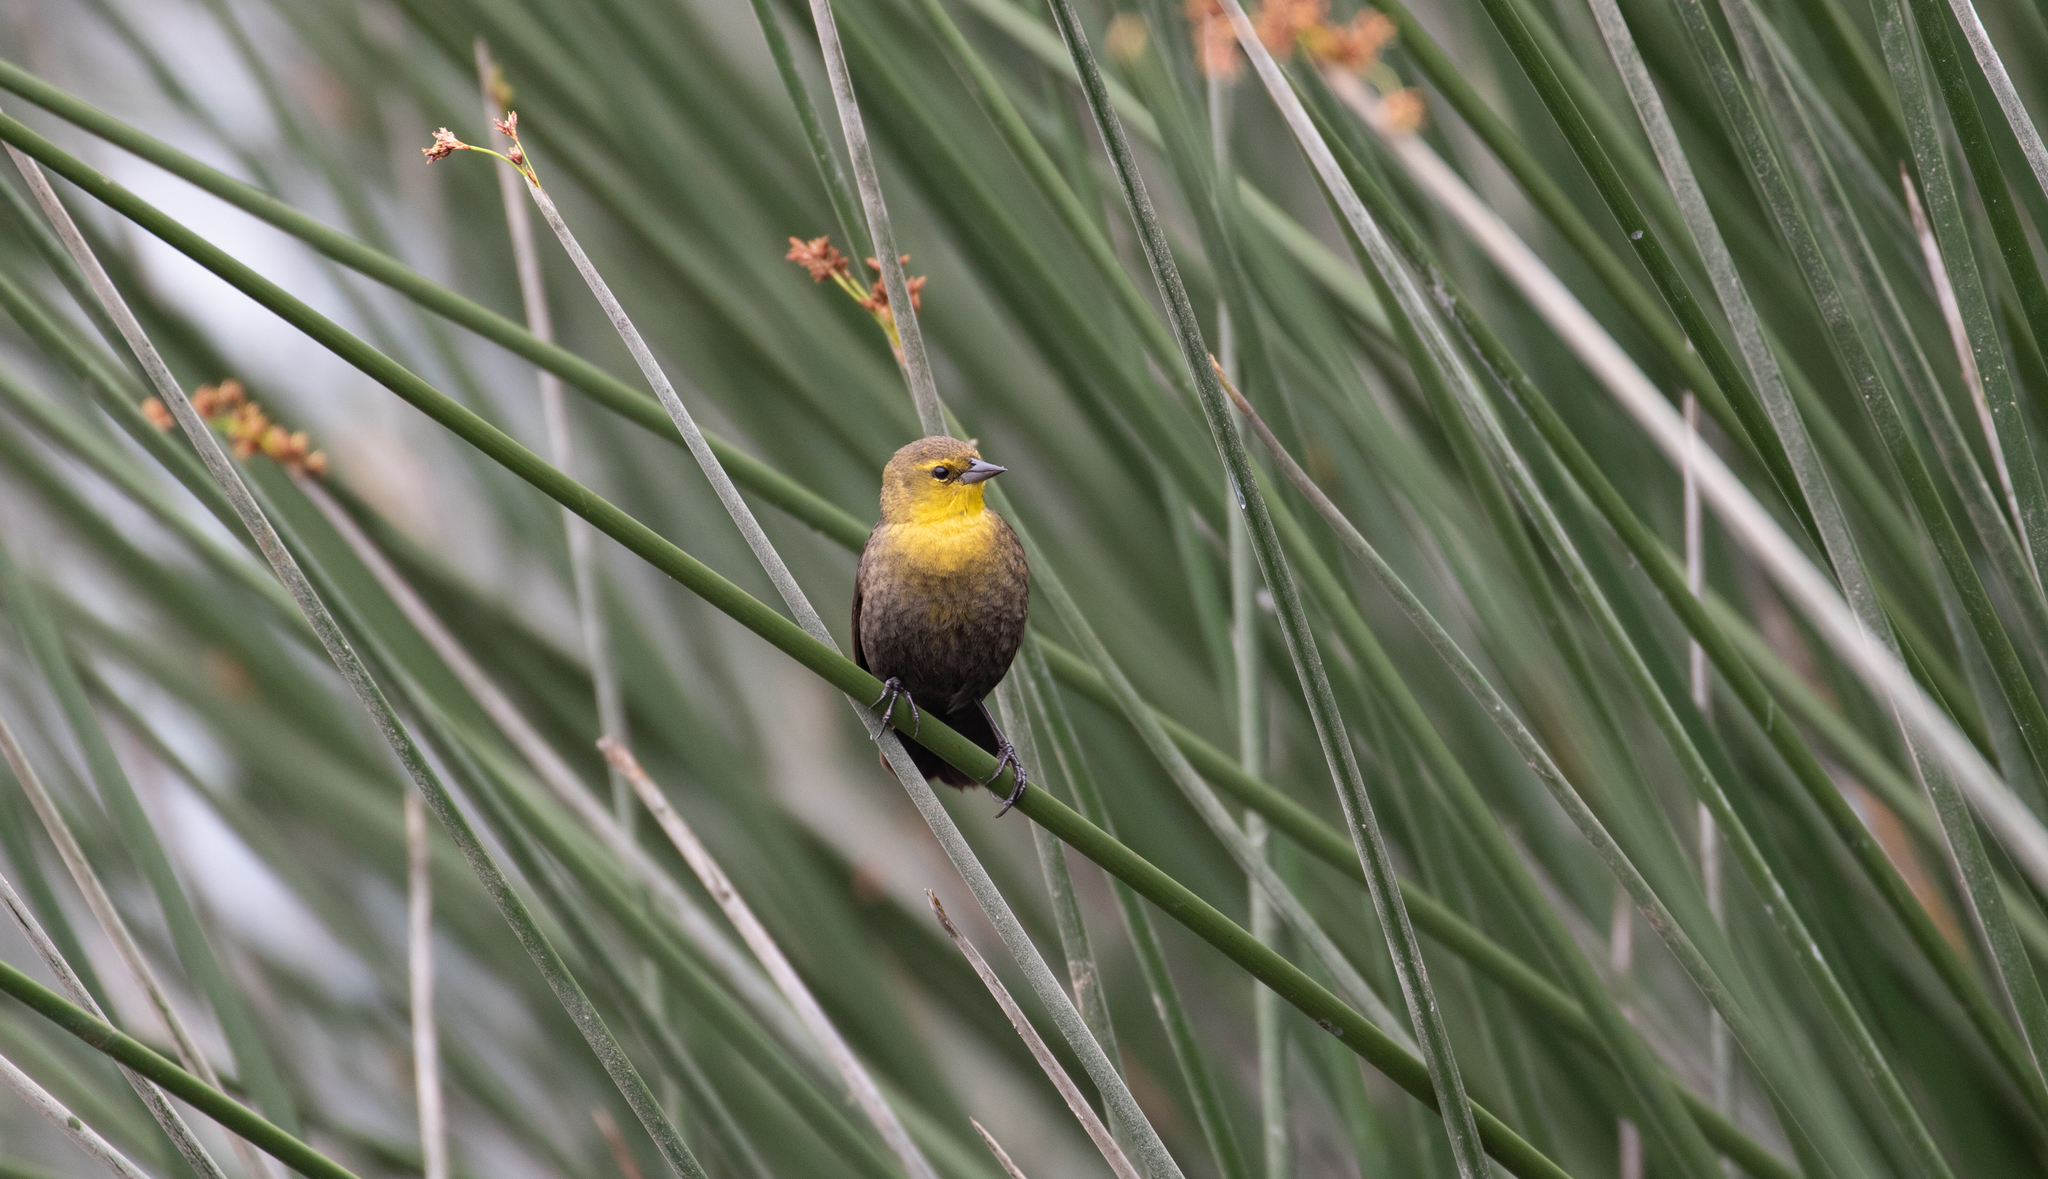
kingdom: Animalia
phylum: Chordata
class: Aves
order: Passeriformes
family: Icteridae
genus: Chrysomus
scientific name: Chrysomus icterocephalus
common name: Yellow-hooded blackbird
